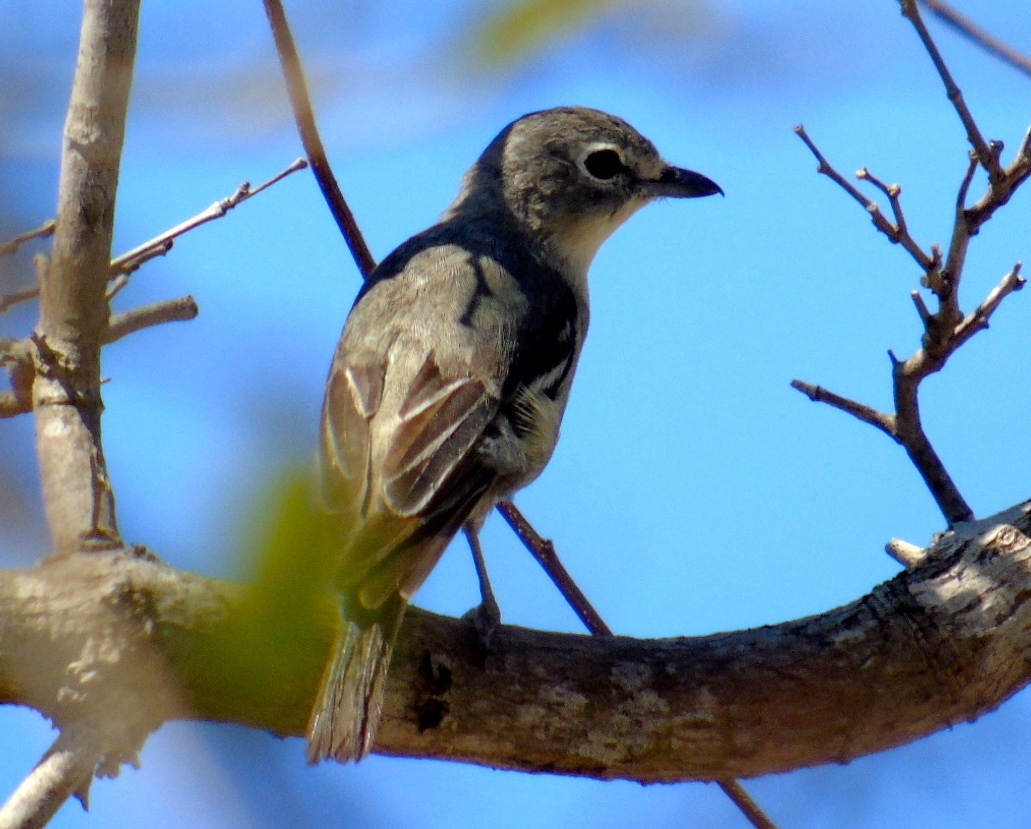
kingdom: Animalia
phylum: Chordata
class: Aves
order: Passeriformes
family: Vireonidae
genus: Vireo
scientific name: Vireo plumbeus
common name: Plumbeous vireo
